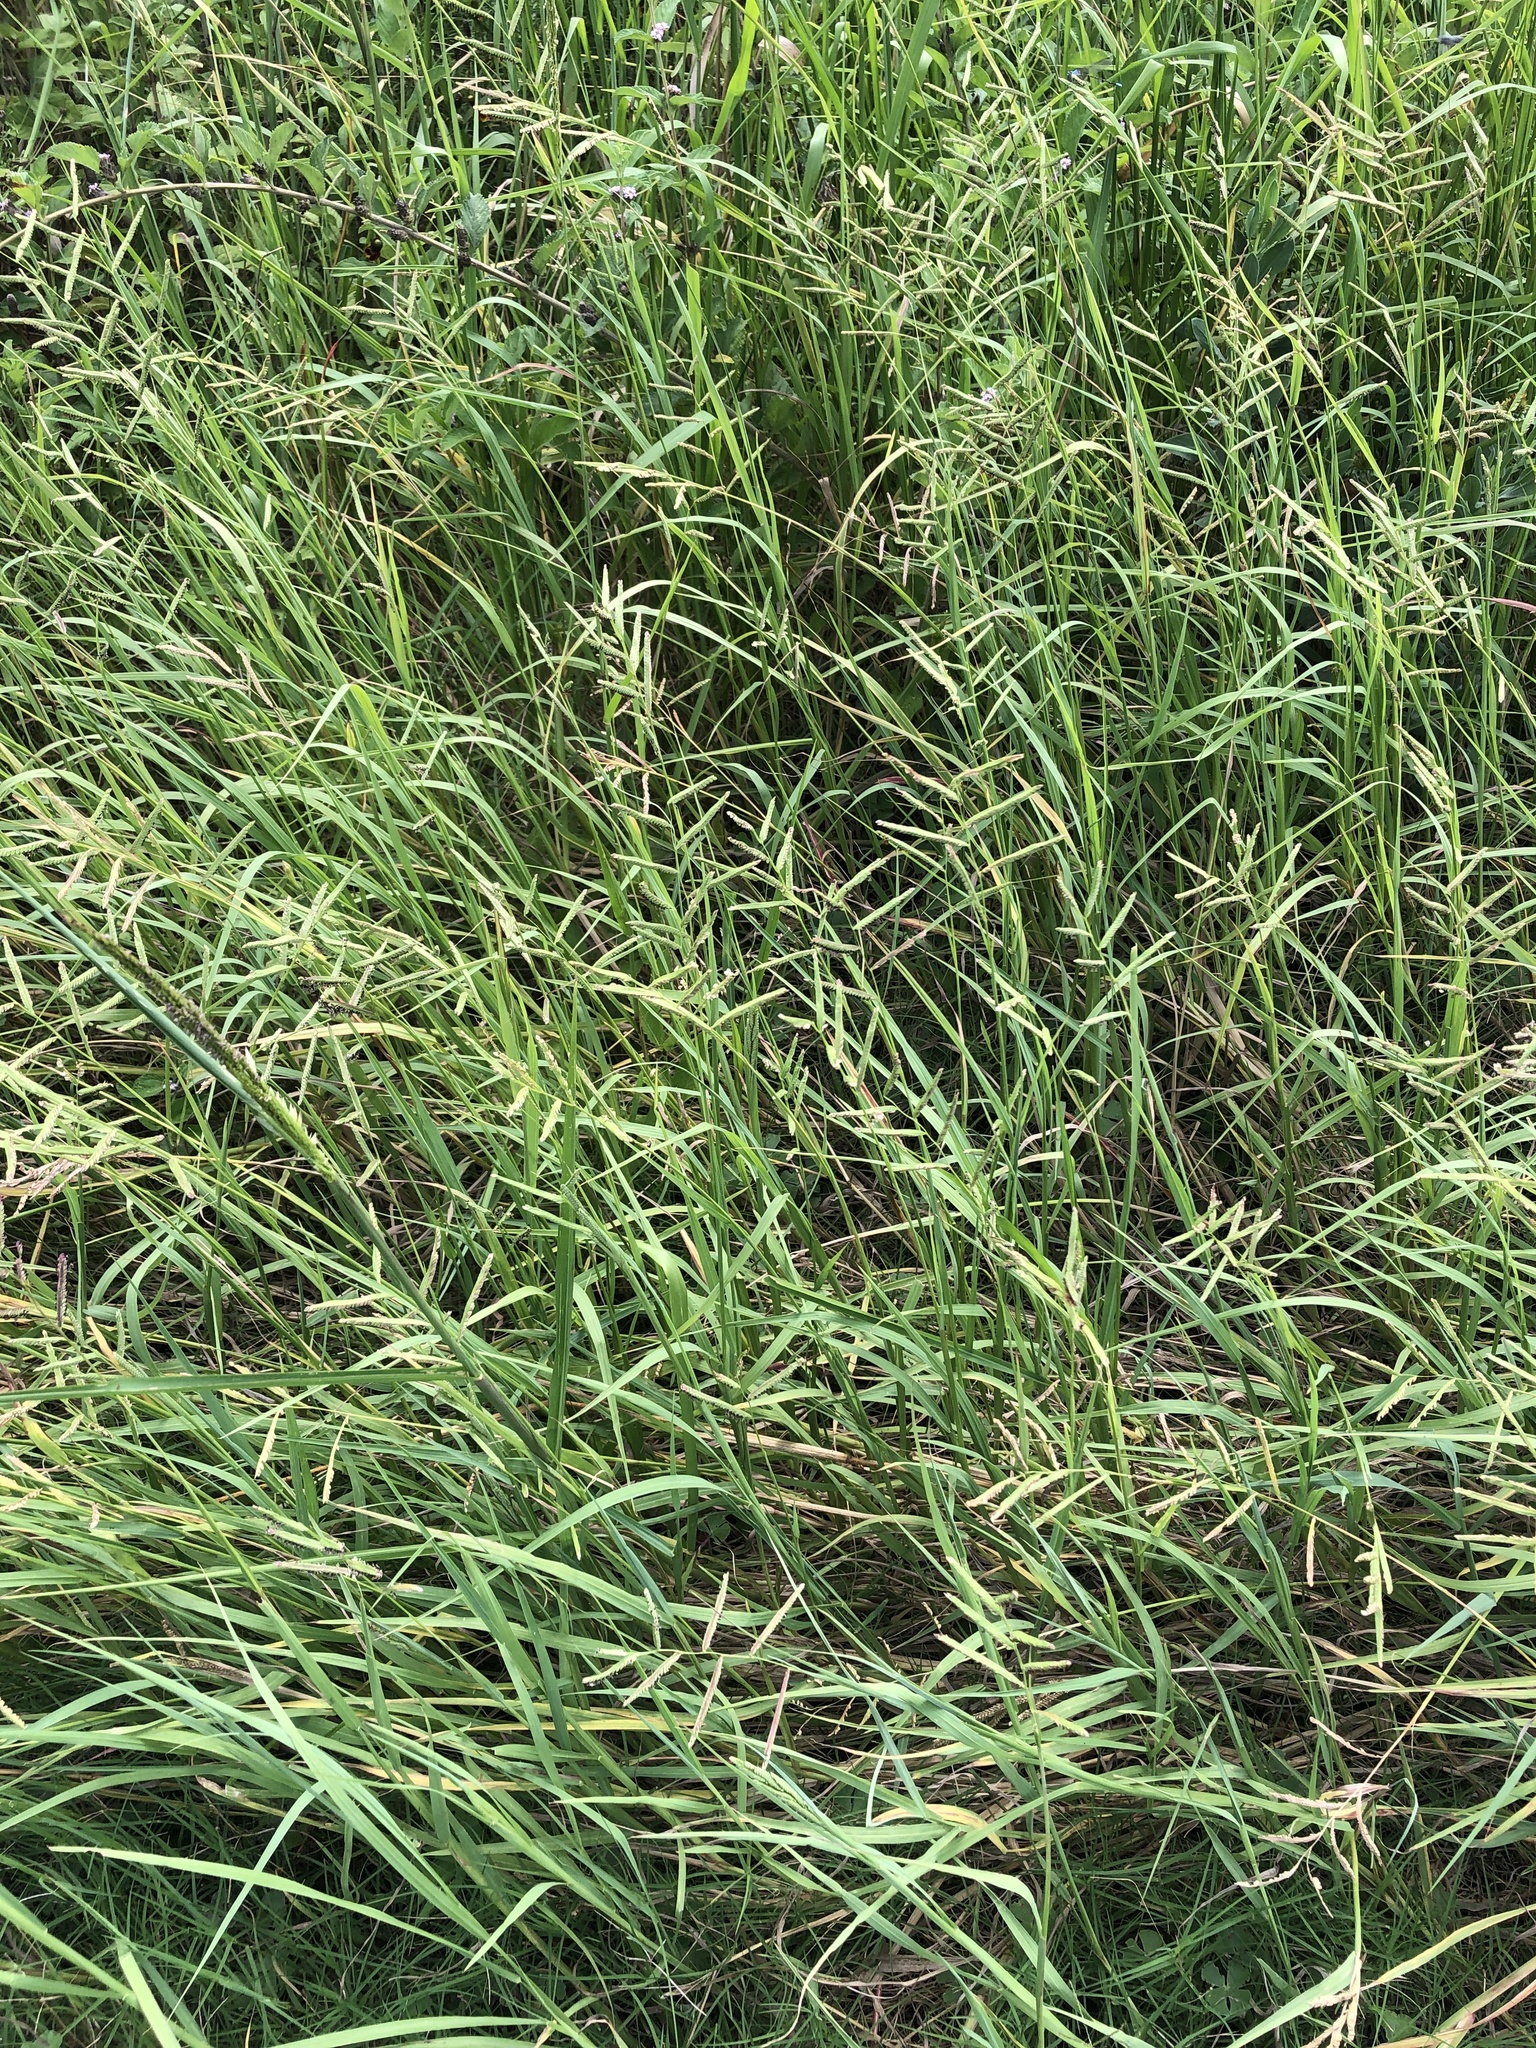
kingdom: Plantae
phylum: Tracheophyta
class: Liliopsida
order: Poales
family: Poaceae
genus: Paspalum
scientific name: Paspalum denticulatum
